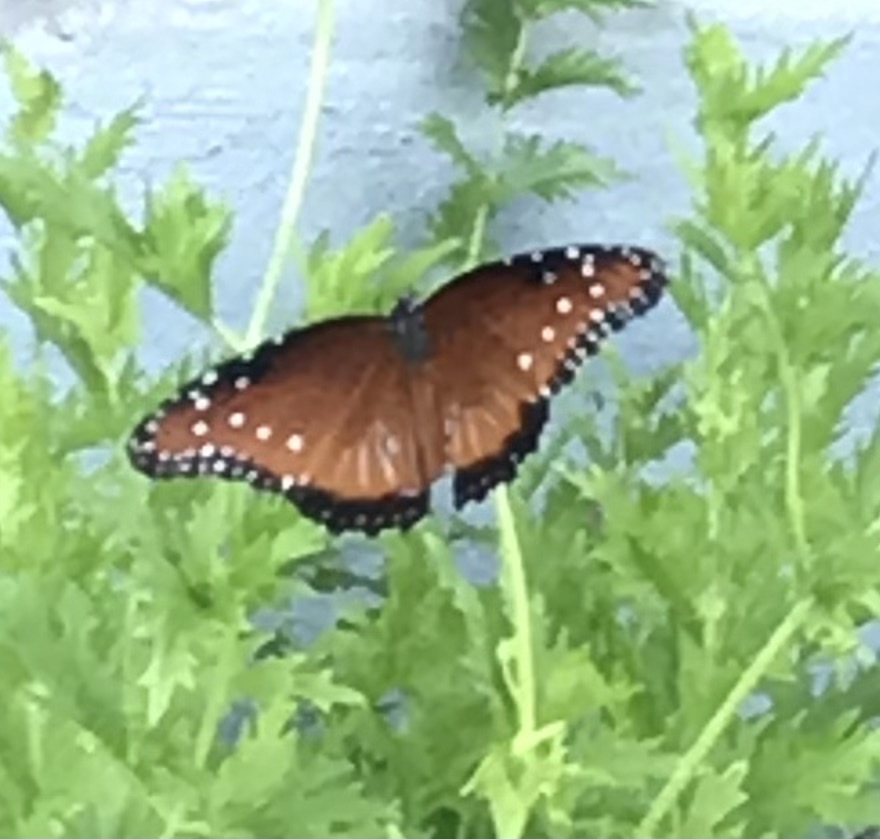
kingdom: Animalia
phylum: Arthropoda
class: Insecta
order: Lepidoptera
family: Nymphalidae
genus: Danaus
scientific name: Danaus gilippus
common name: Queen
